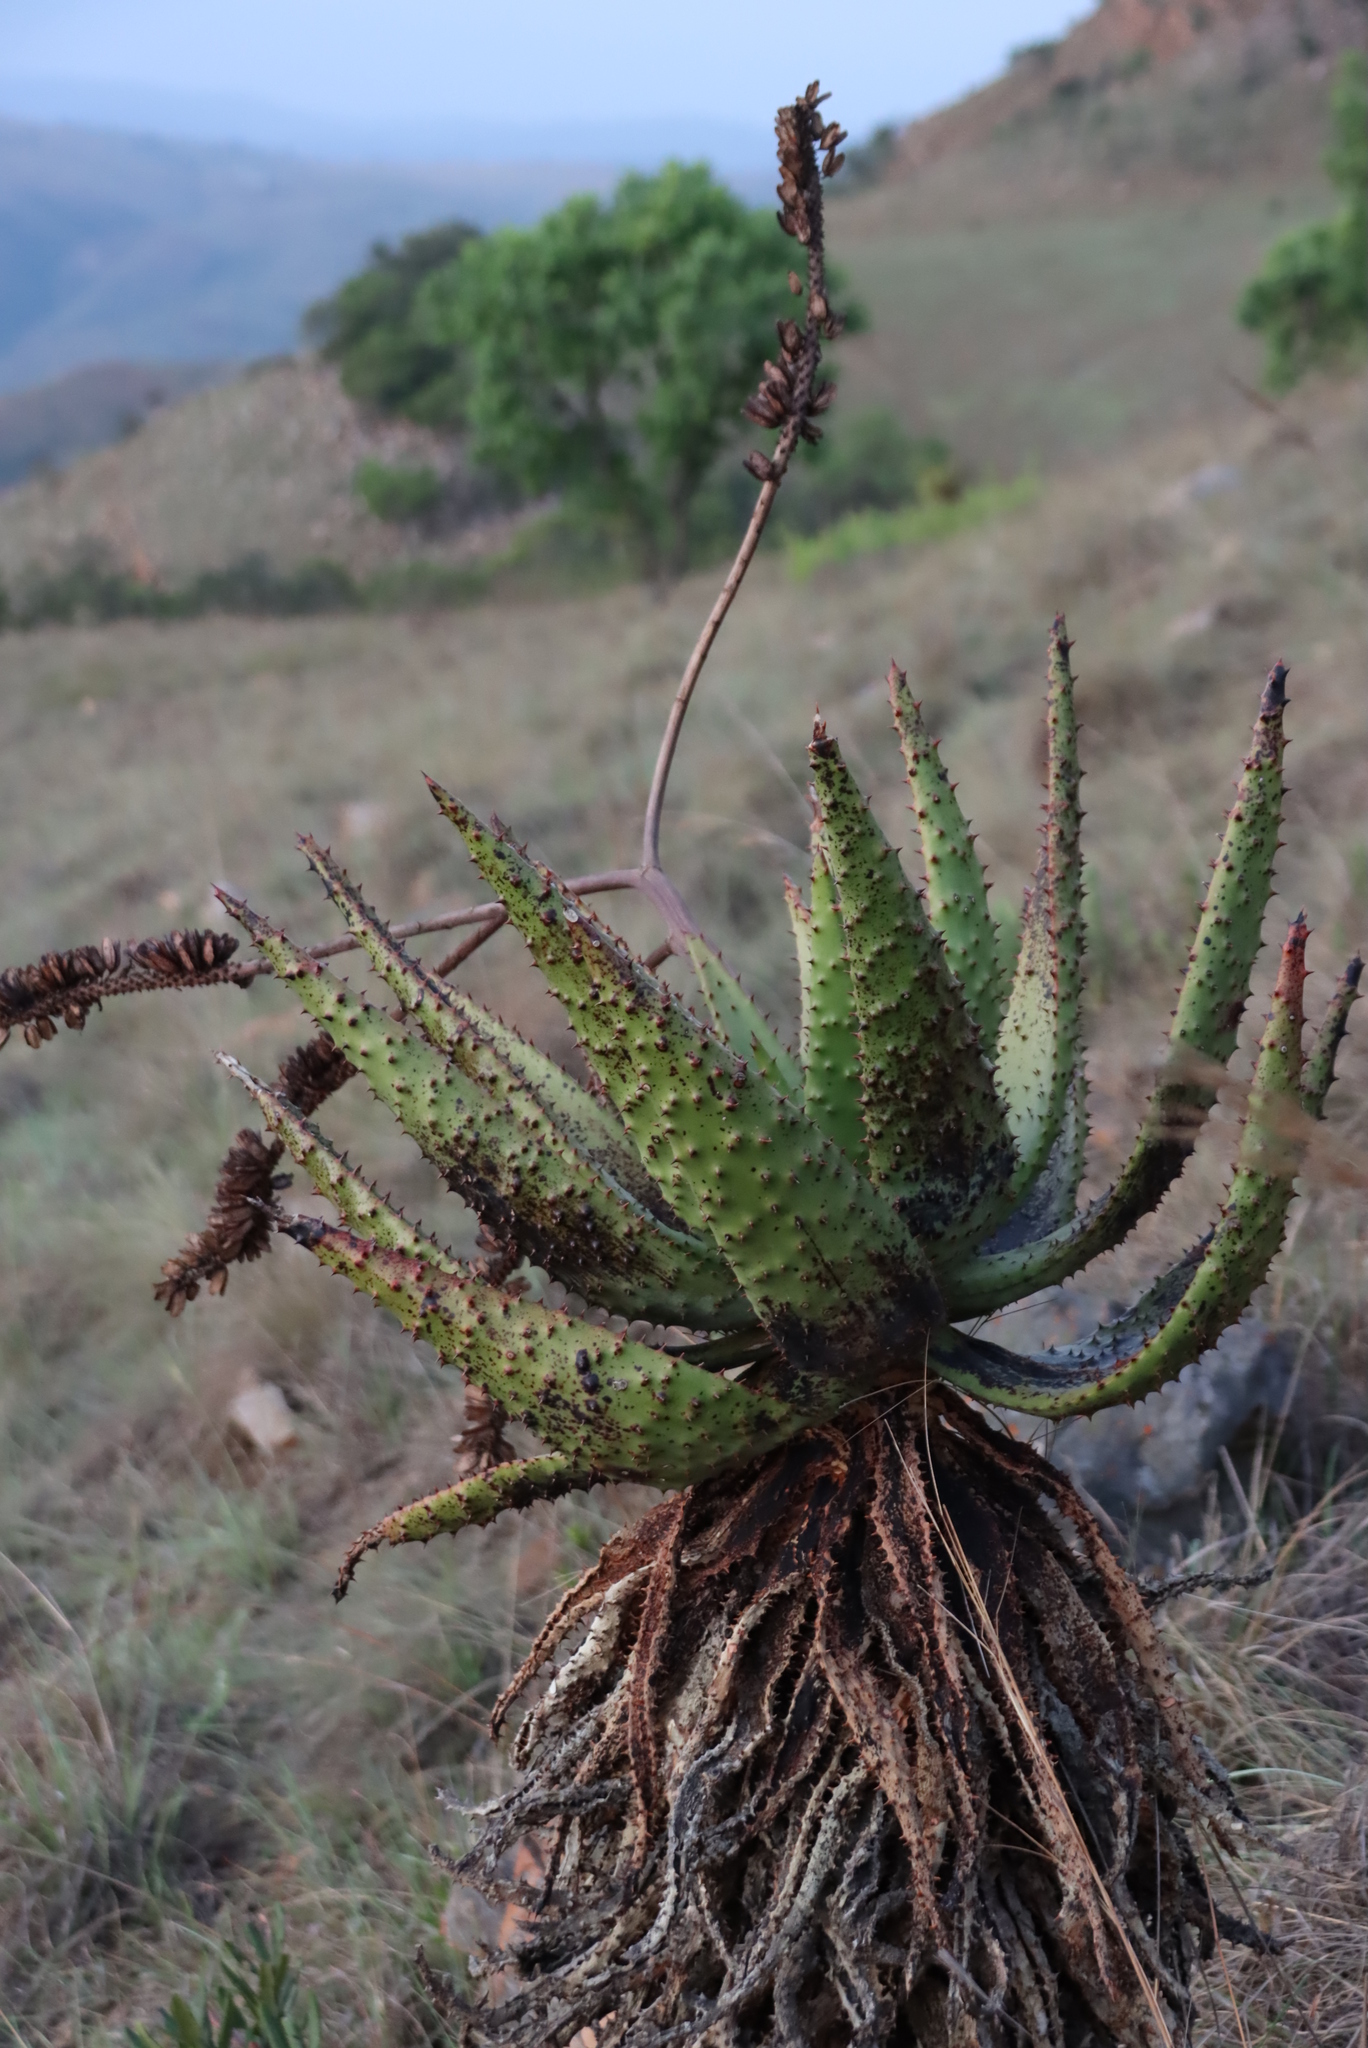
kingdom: Plantae
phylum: Tracheophyta
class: Liliopsida
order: Asparagales
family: Asphodelaceae
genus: Aloe
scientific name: Aloe marlothii
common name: Flat-flowered aloe
